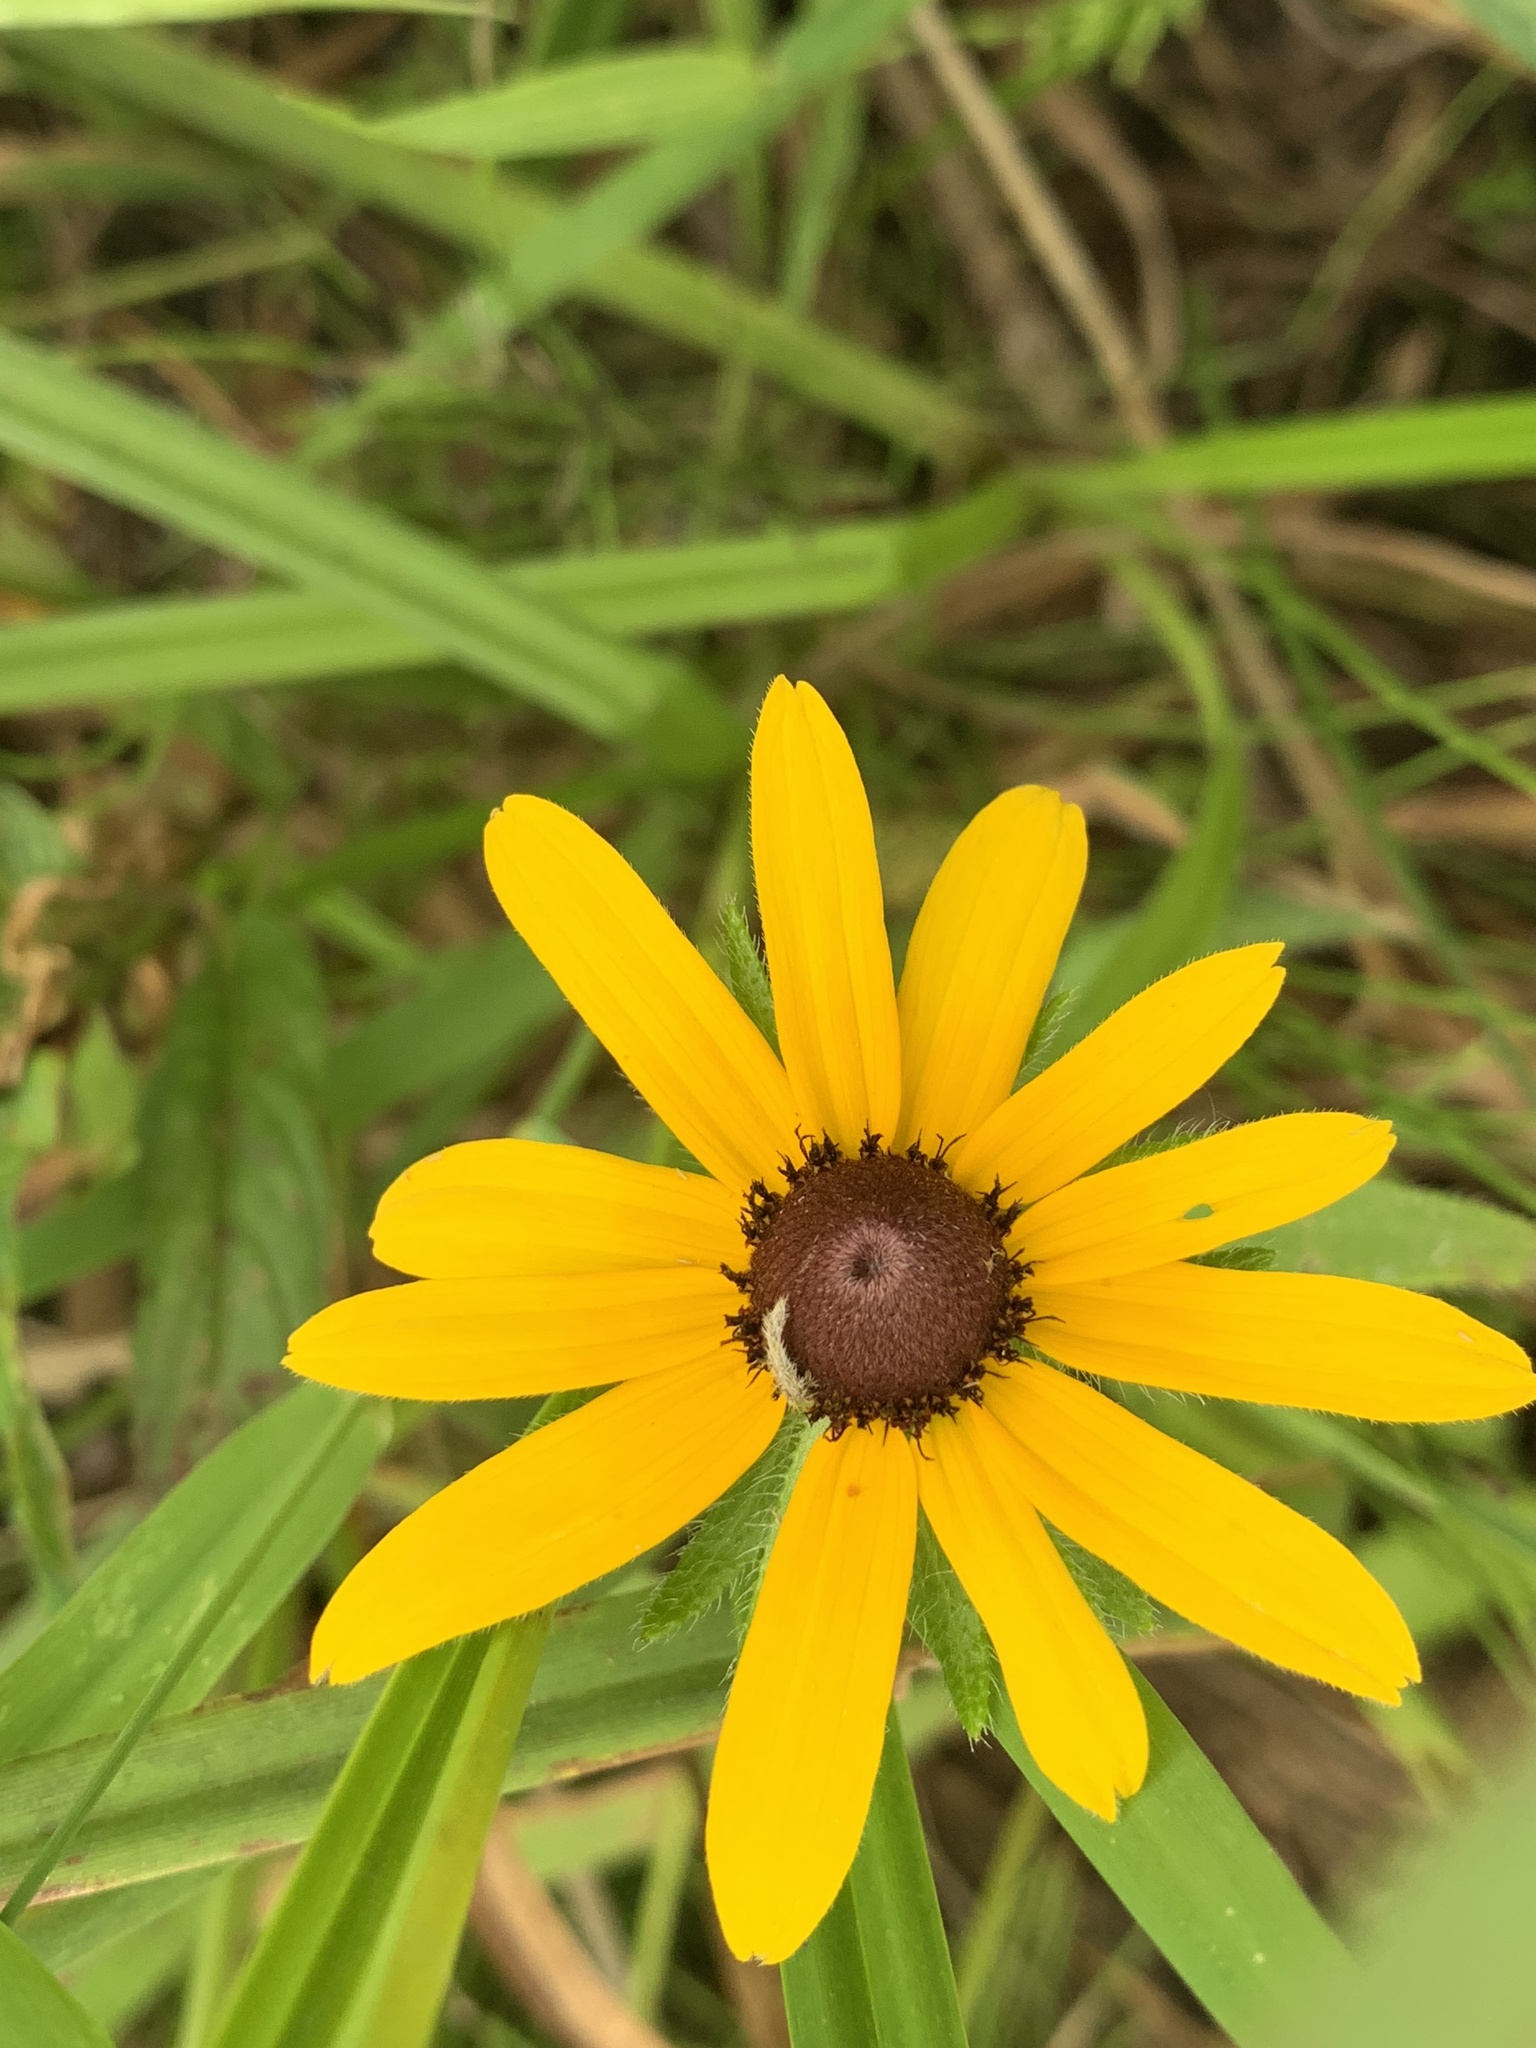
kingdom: Plantae
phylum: Tracheophyta
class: Magnoliopsida
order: Asterales
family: Asteraceae
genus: Rudbeckia
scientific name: Rudbeckia hirta
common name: Black-eyed-susan
